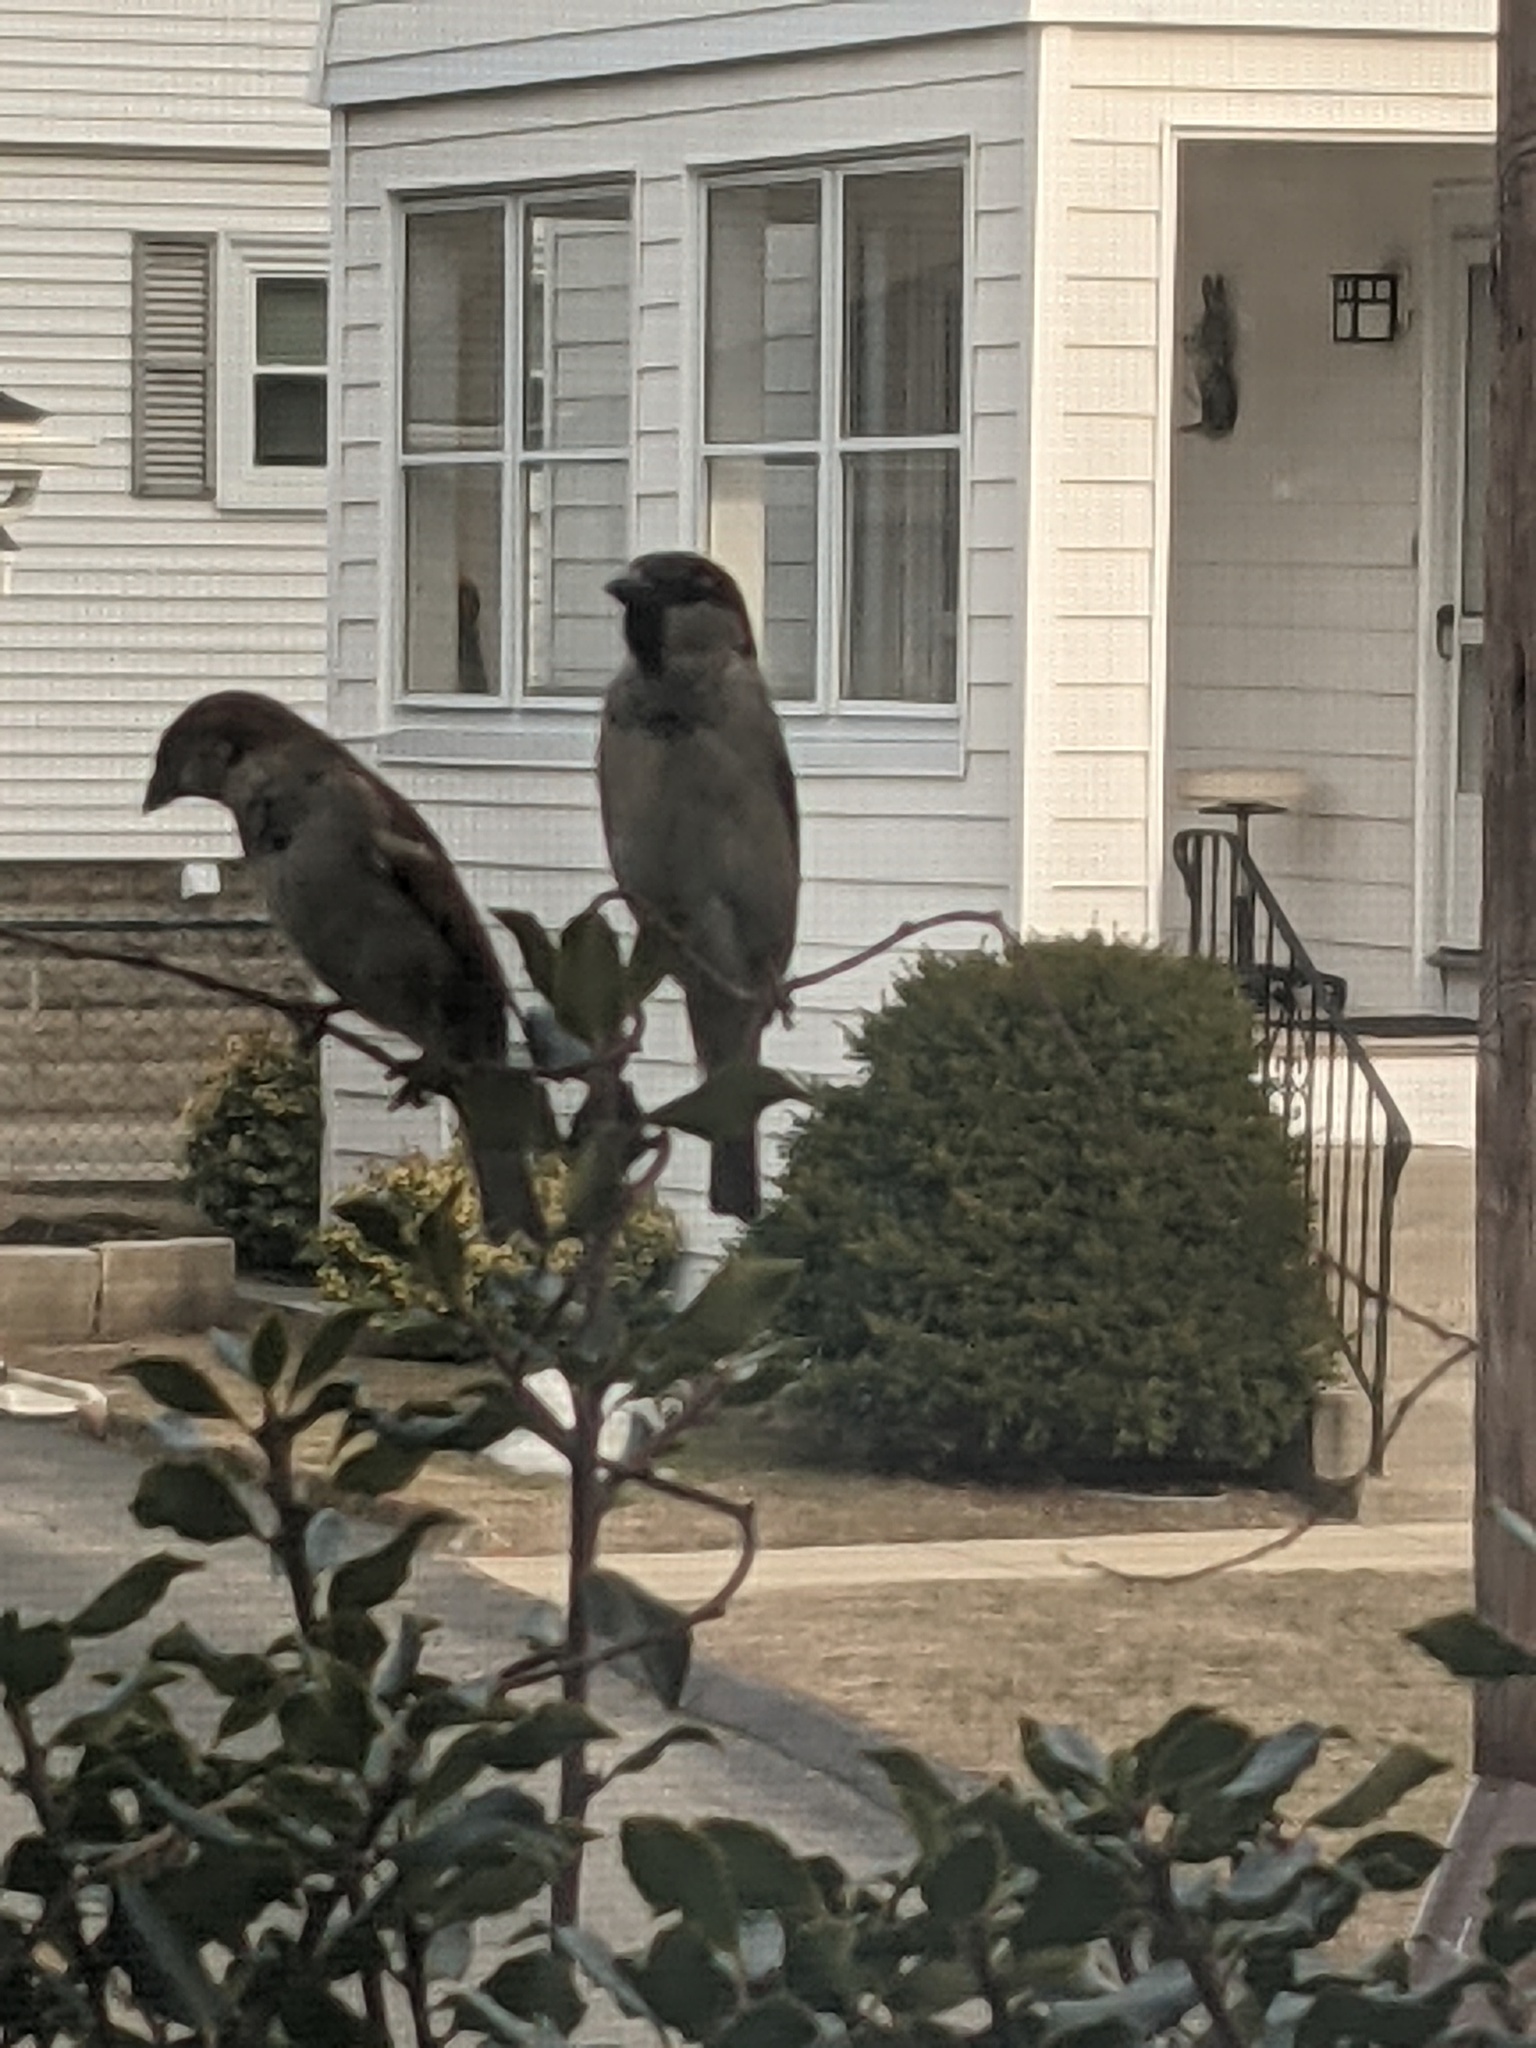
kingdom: Animalia
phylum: Chordata
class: Aves
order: Passeriformes
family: Passeridae
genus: Passer
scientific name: Passer domesticus
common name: House sparrow
